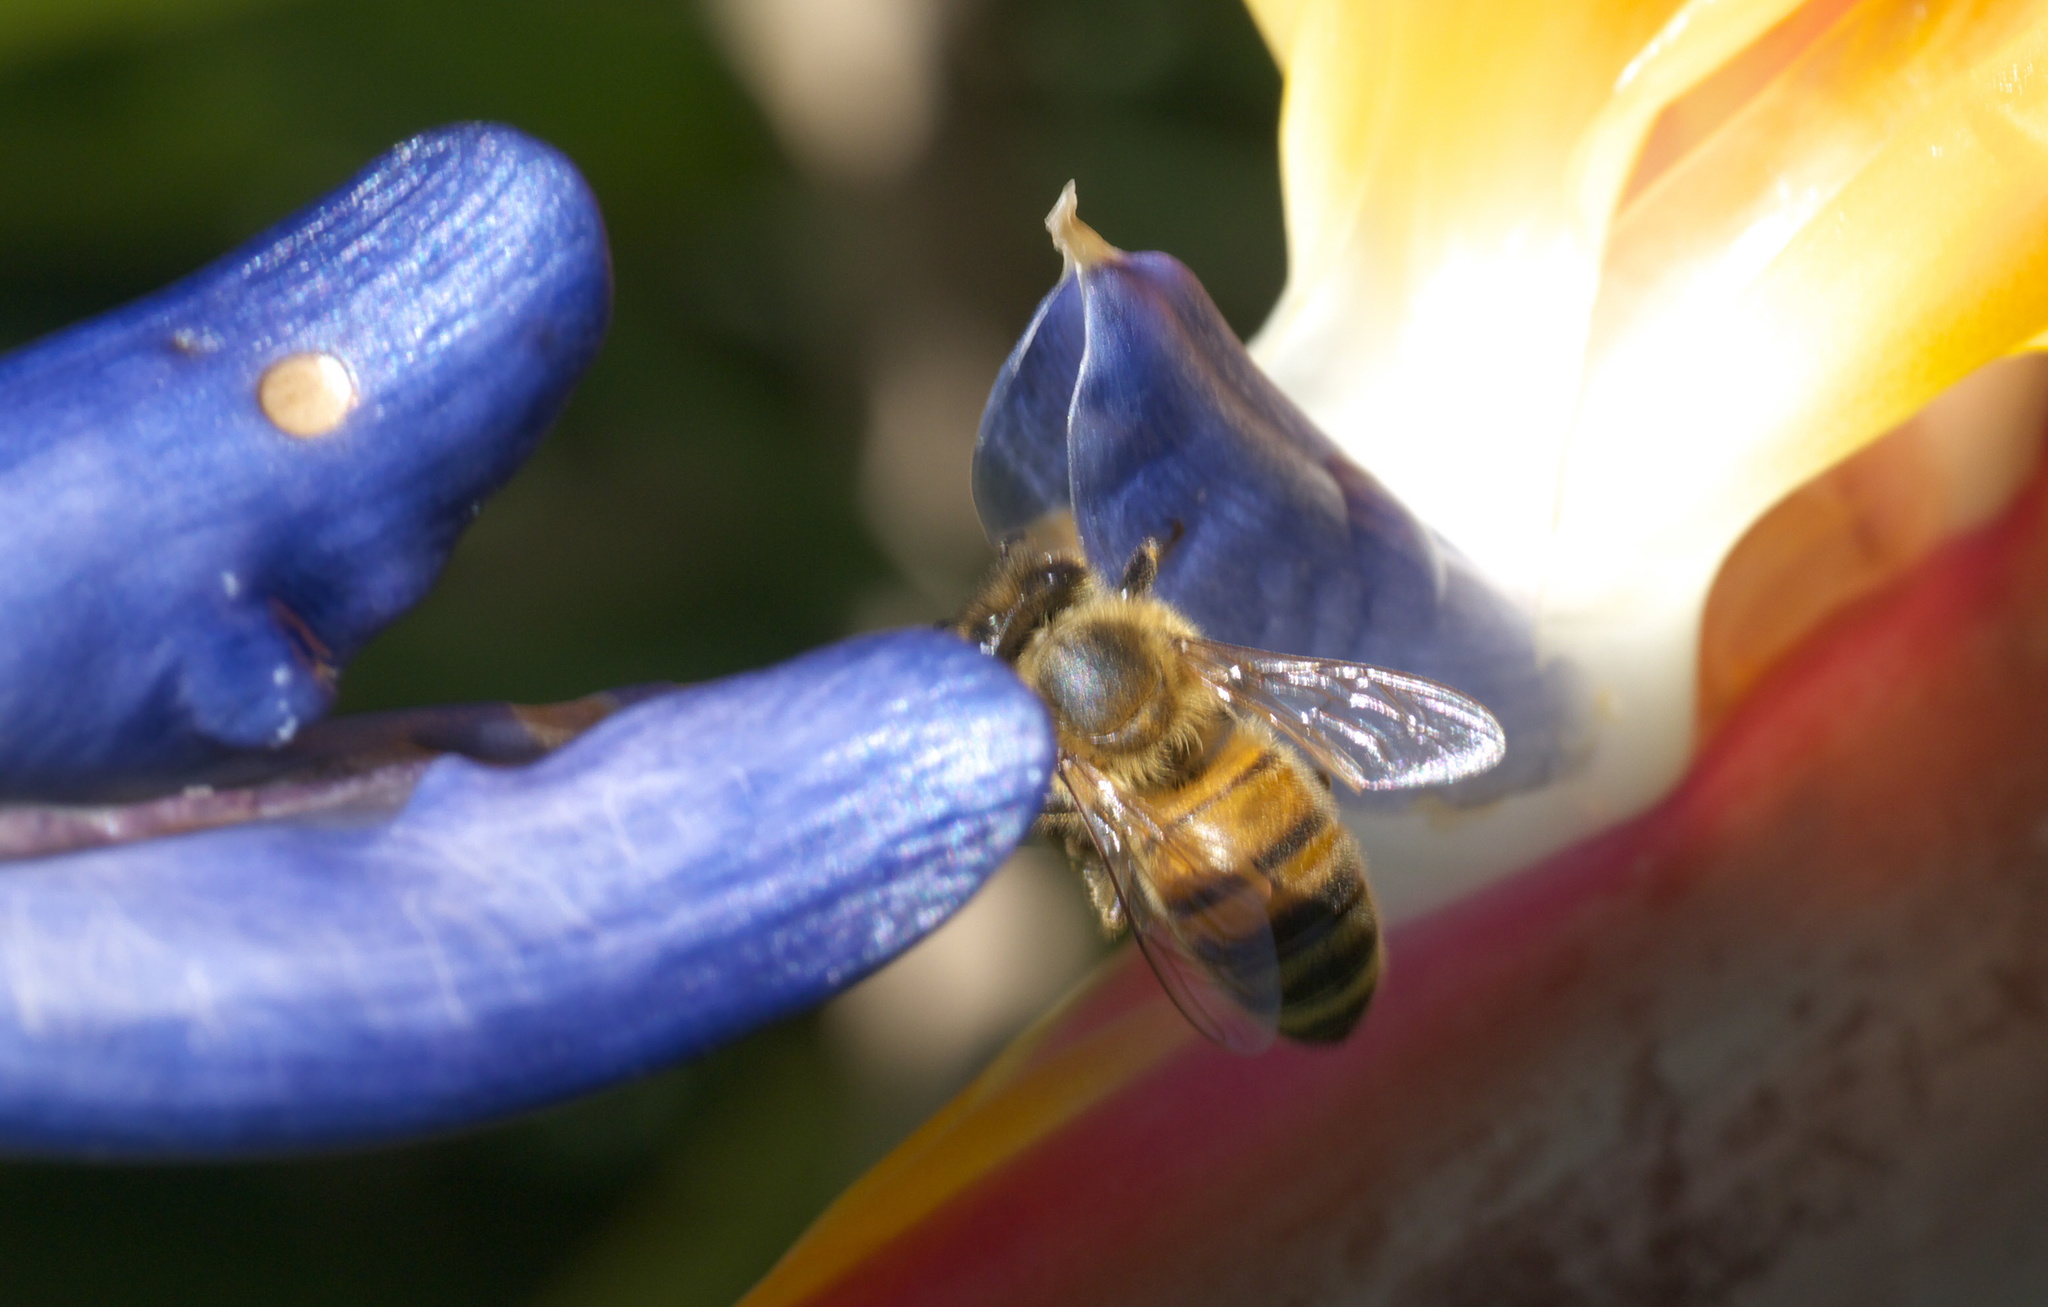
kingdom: Animalia
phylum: Arthropoda
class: Insecta
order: Hymenoptera
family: Apidae
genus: Apis
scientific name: Apis mellifera
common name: Honey bee
